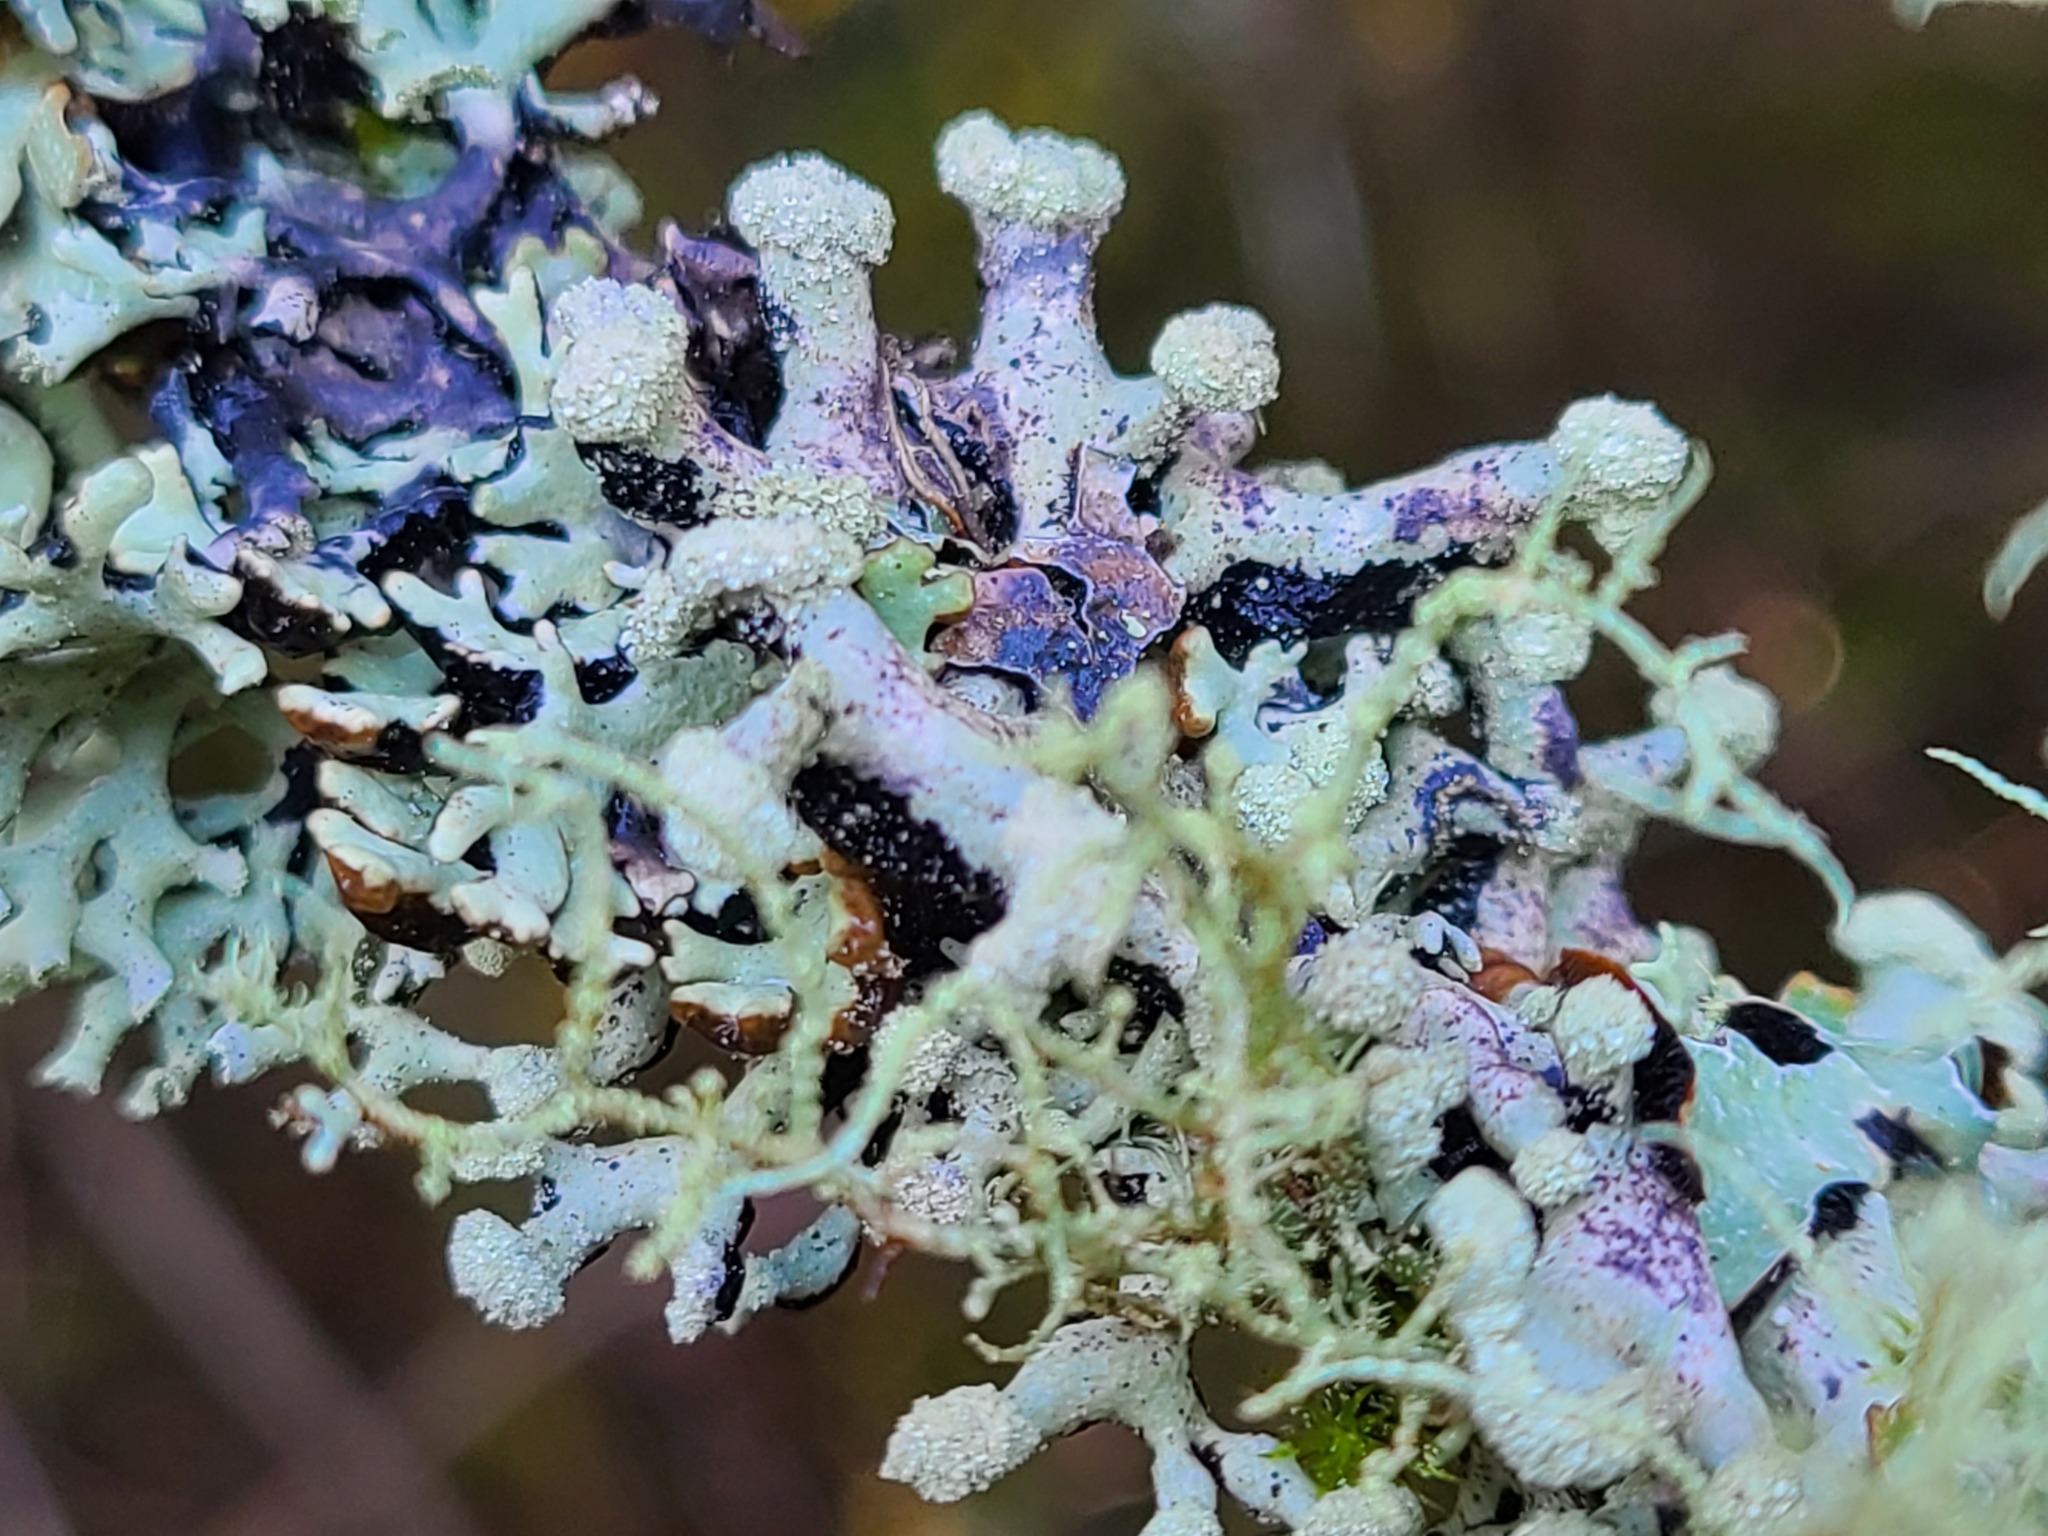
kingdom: Fungi
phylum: Ascomycota
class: Lecanoromycetes
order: Lecanorales
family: Parmeliaceae
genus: Hypogymnia
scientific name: Hypogymnia tubulosa
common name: Powder-headed tube lichen
